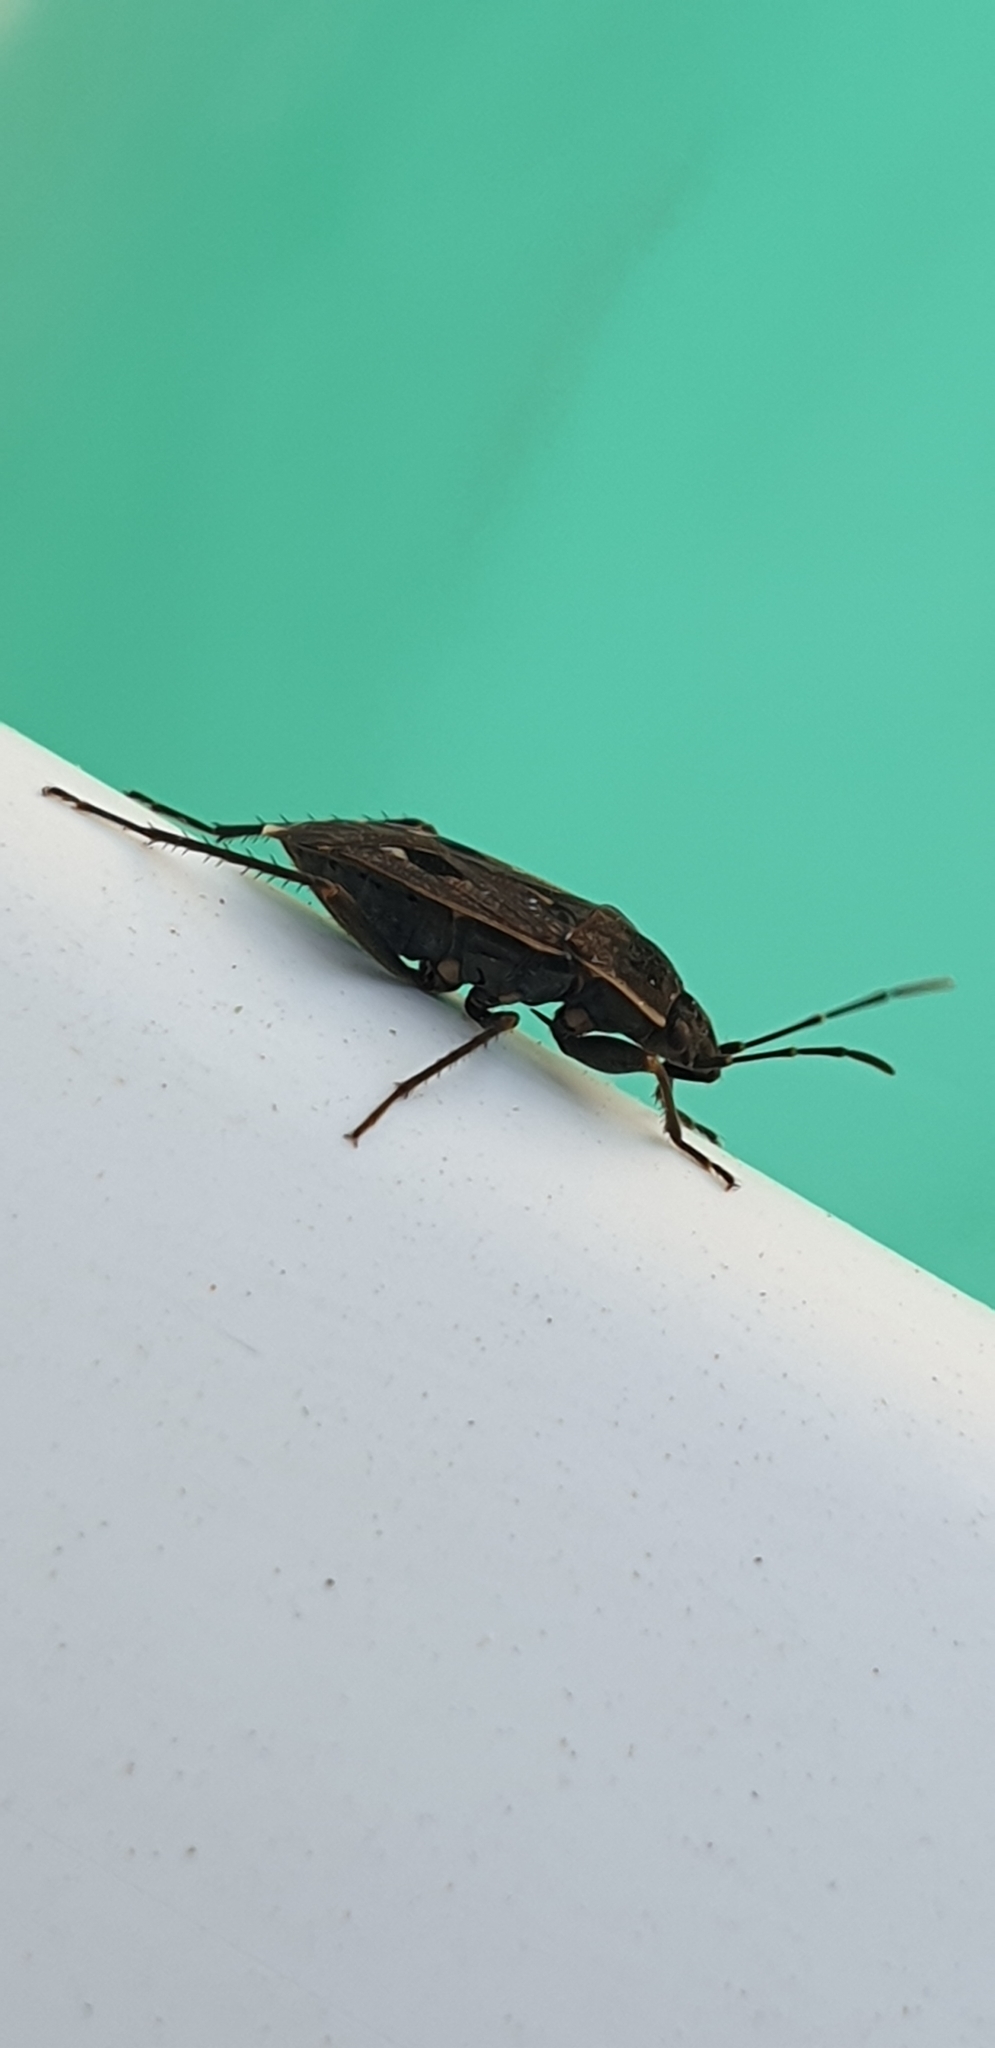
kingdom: Animalia
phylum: Arthropoda
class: Insecta
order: Hemiptera
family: Rhyparochromidae
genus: Graptopeltus
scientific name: Graptopeltus lynceus
